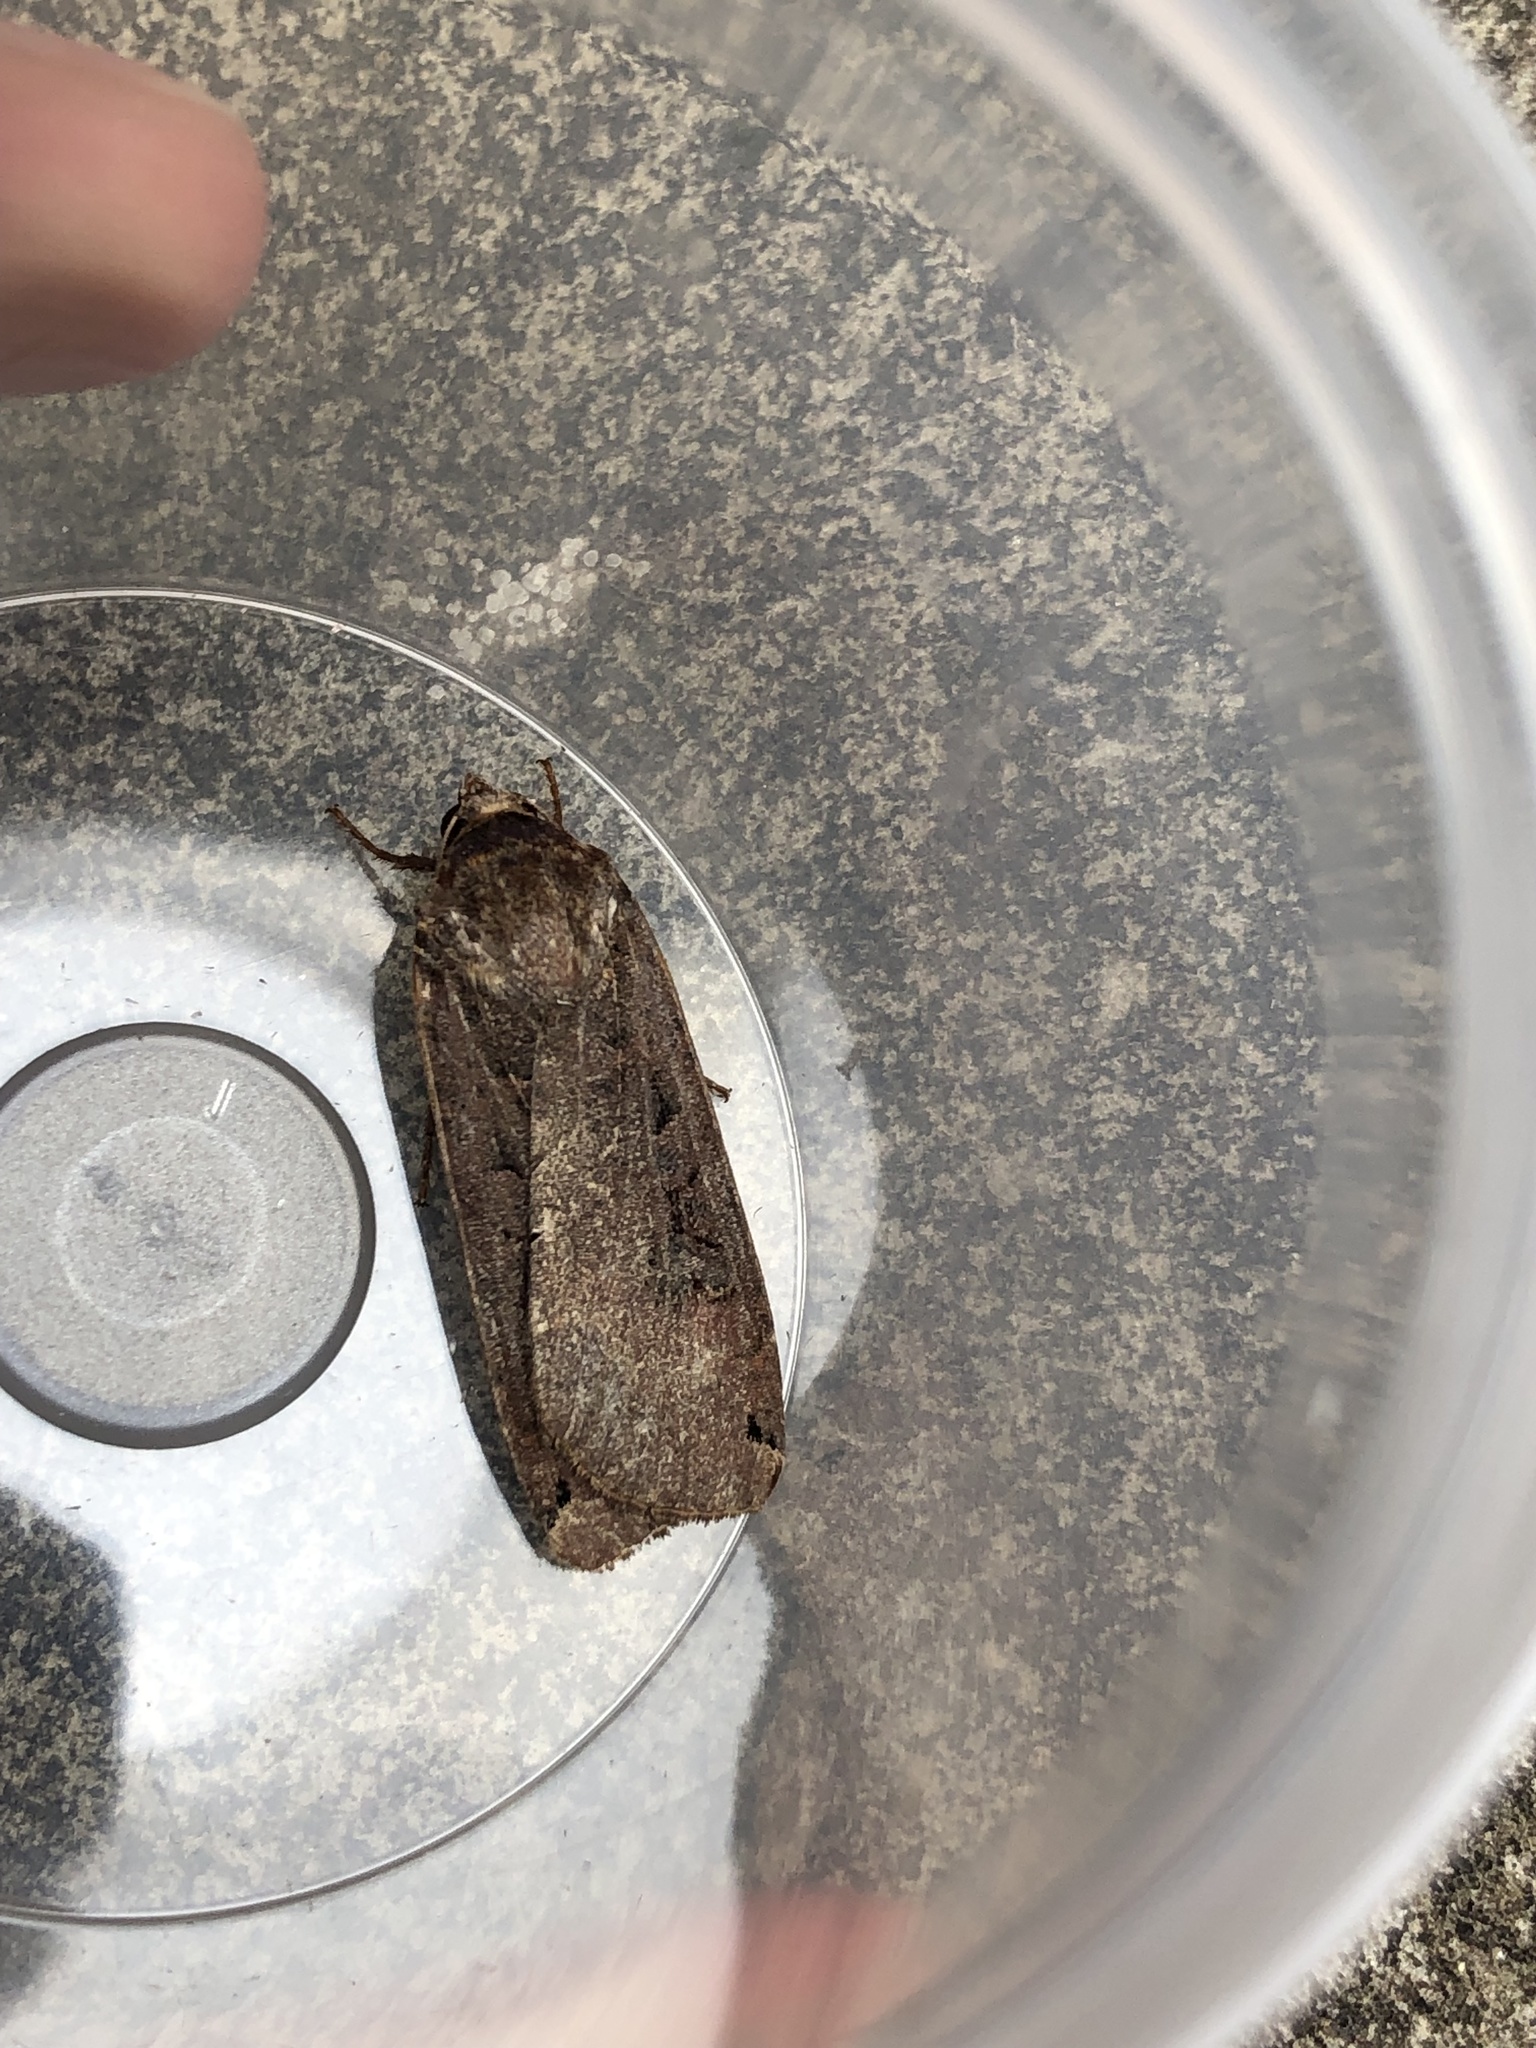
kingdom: Animalia
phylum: Arthropoda
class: Insecta
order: Lepidoptera
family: Noctuidae
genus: Noctua
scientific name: Noctua pronuba
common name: Large yellow underwing
